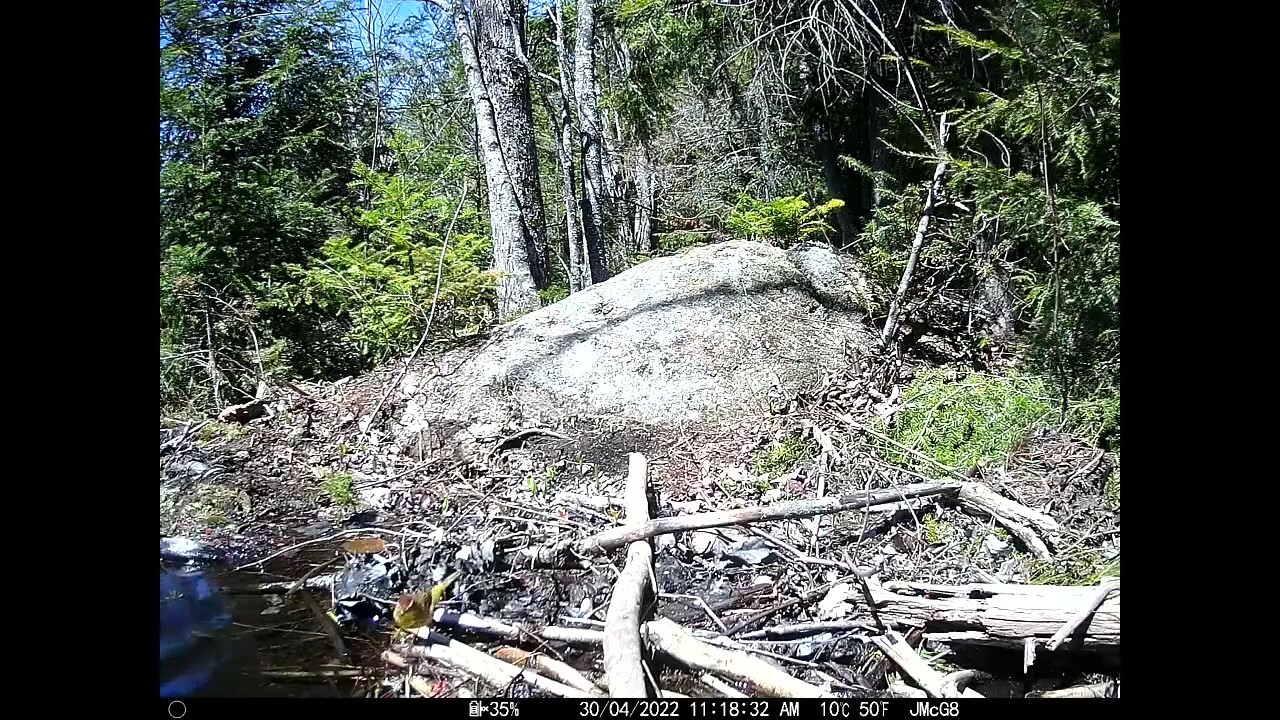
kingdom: Animalia
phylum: Chordata
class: Aves
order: Passeriformes
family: Parulidae
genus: Setophaga
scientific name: Setophaga palmarum
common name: Palm warbler
